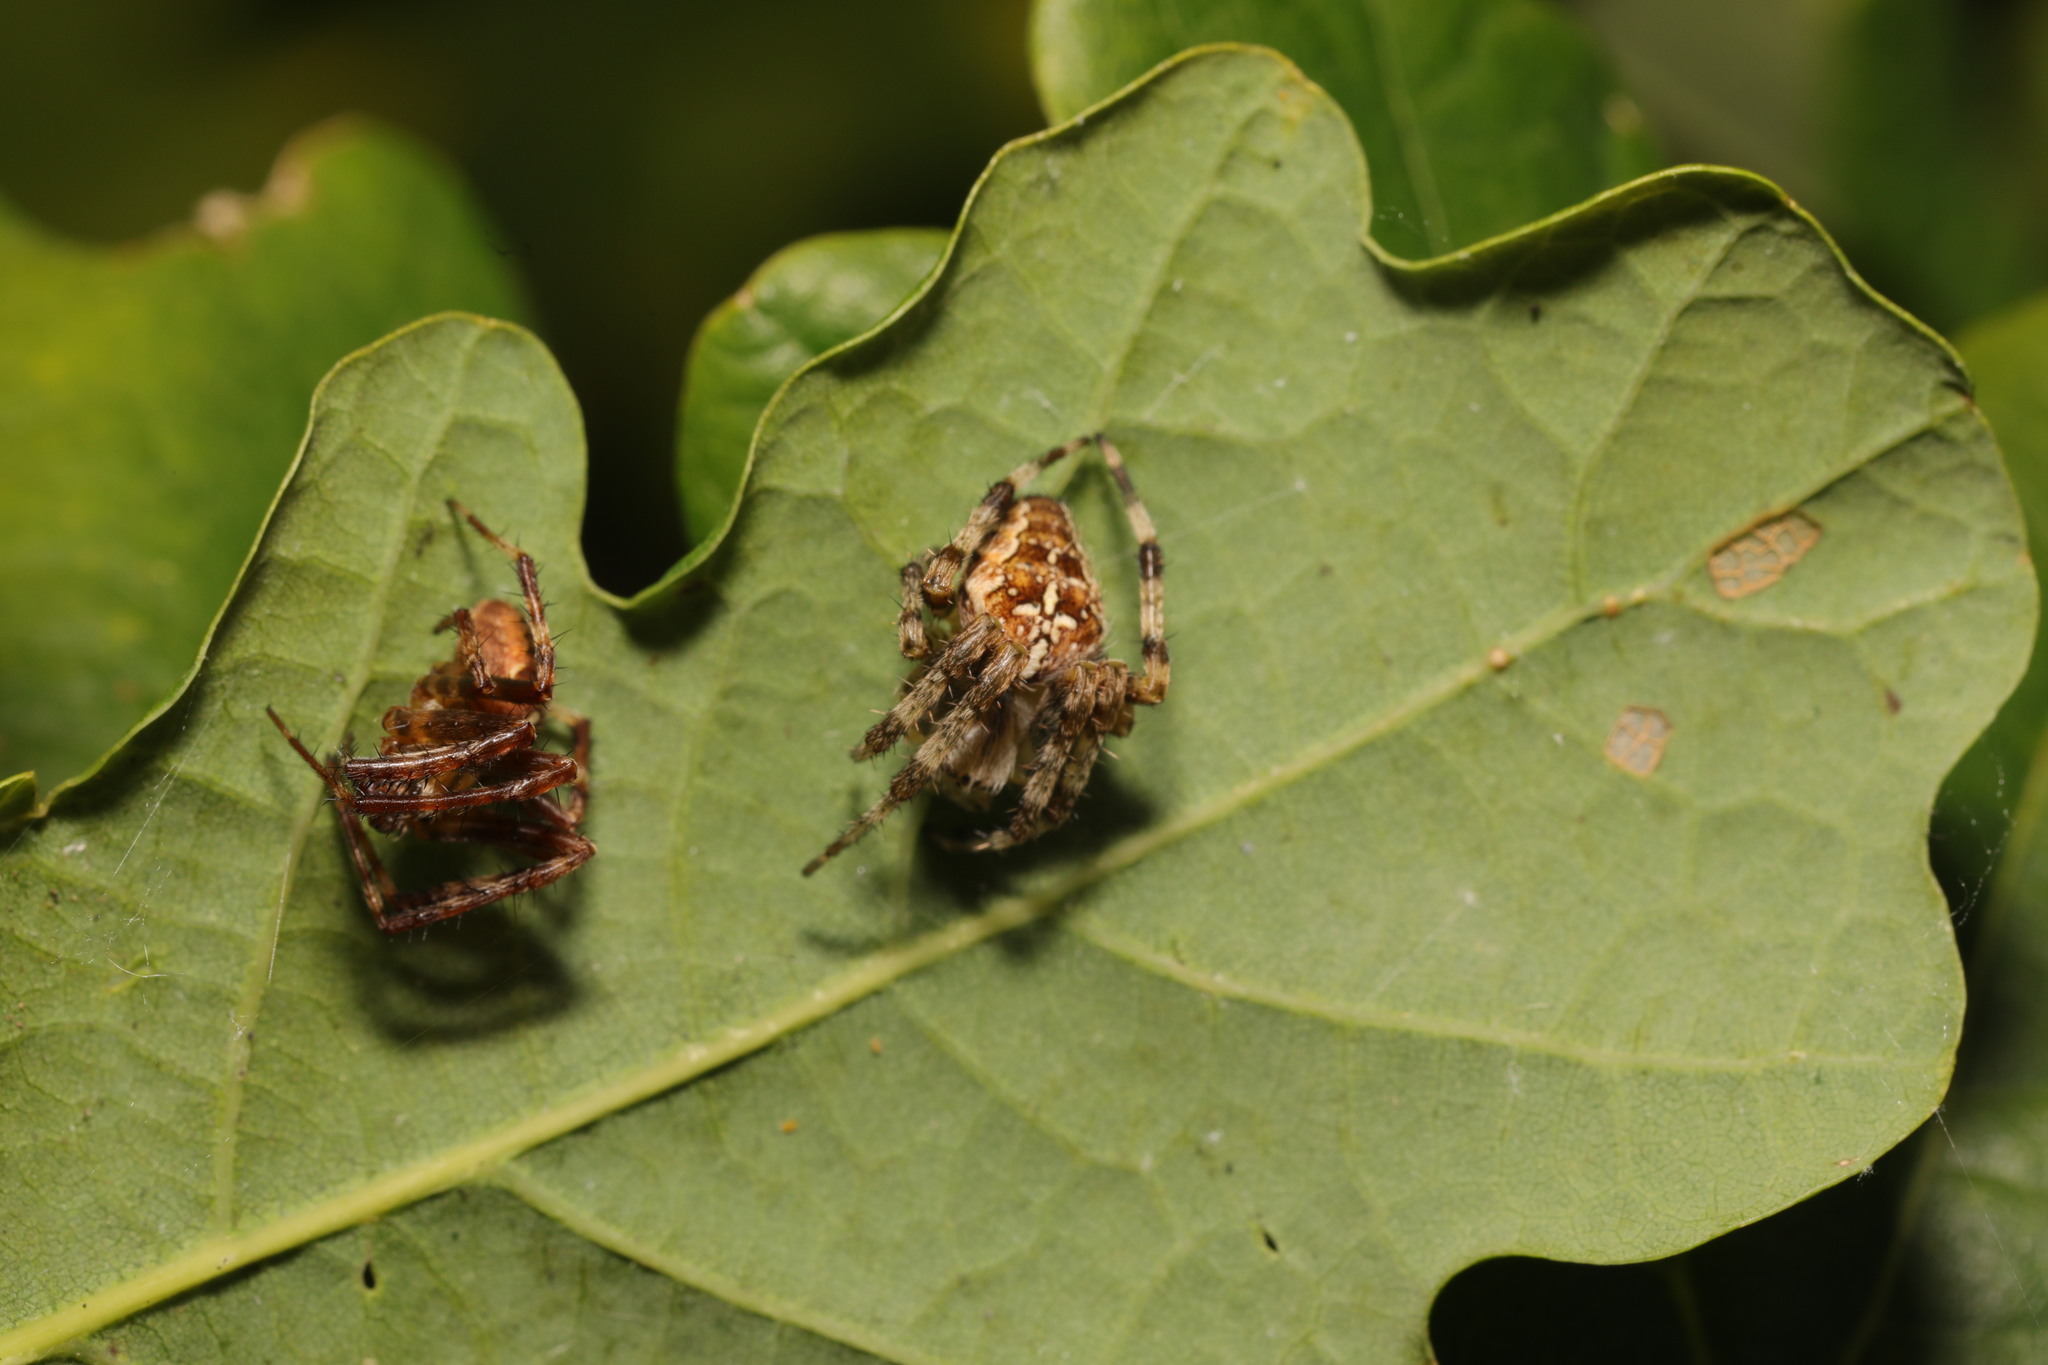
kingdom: Animalia
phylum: Arthropoda
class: Arachnida
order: Araneae
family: Araneidae
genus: Araneus
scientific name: Araneus diadematus
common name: Cross orbweaver
